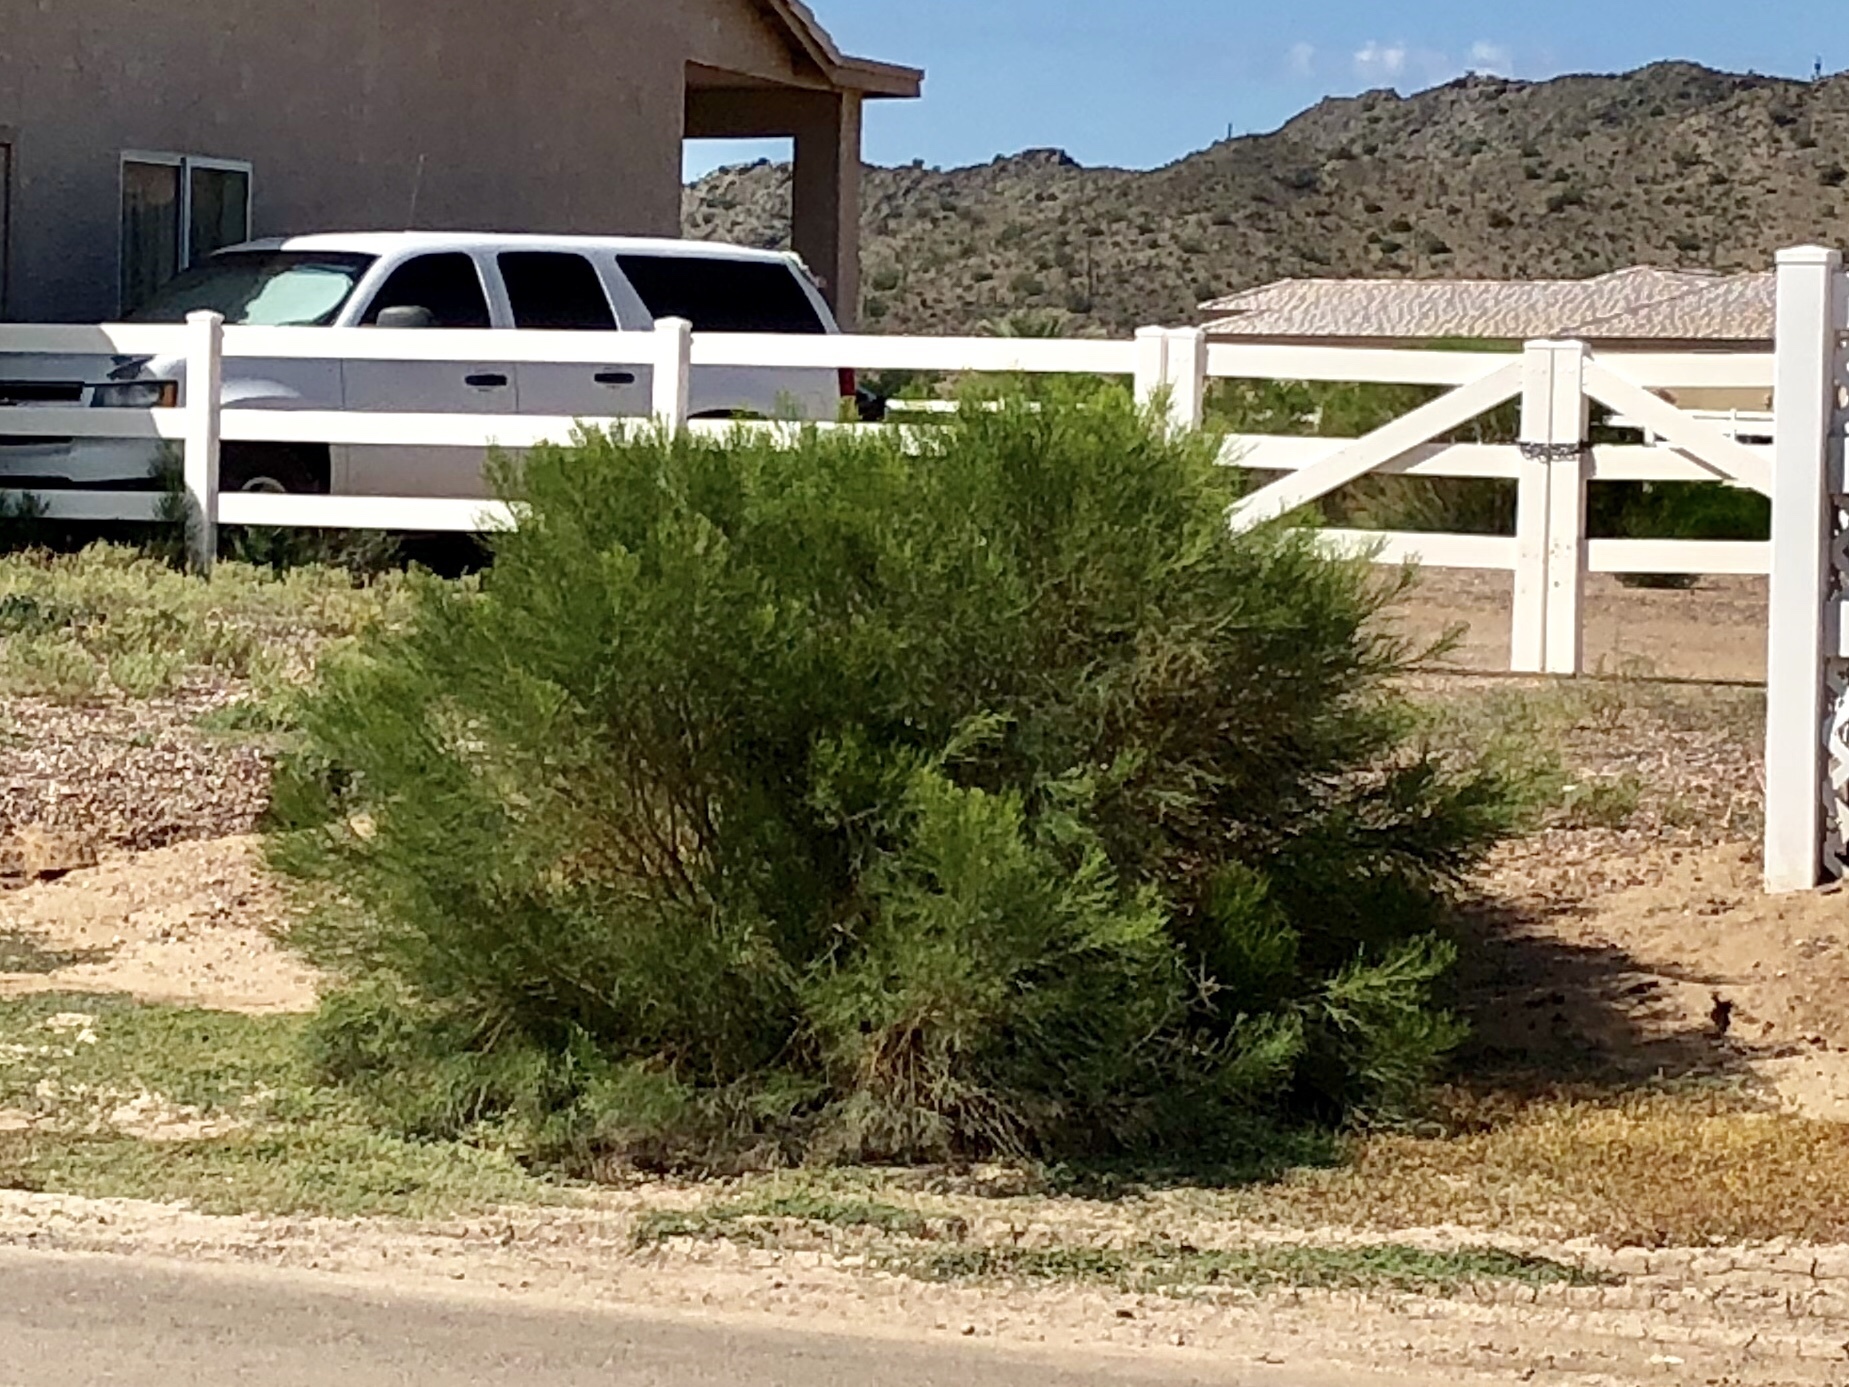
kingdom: Plantae
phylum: Tracheophyta
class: Magnoliopsida
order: Zygophyllales
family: Zygophyllaceae
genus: Larrea
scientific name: Larrea tridentata
